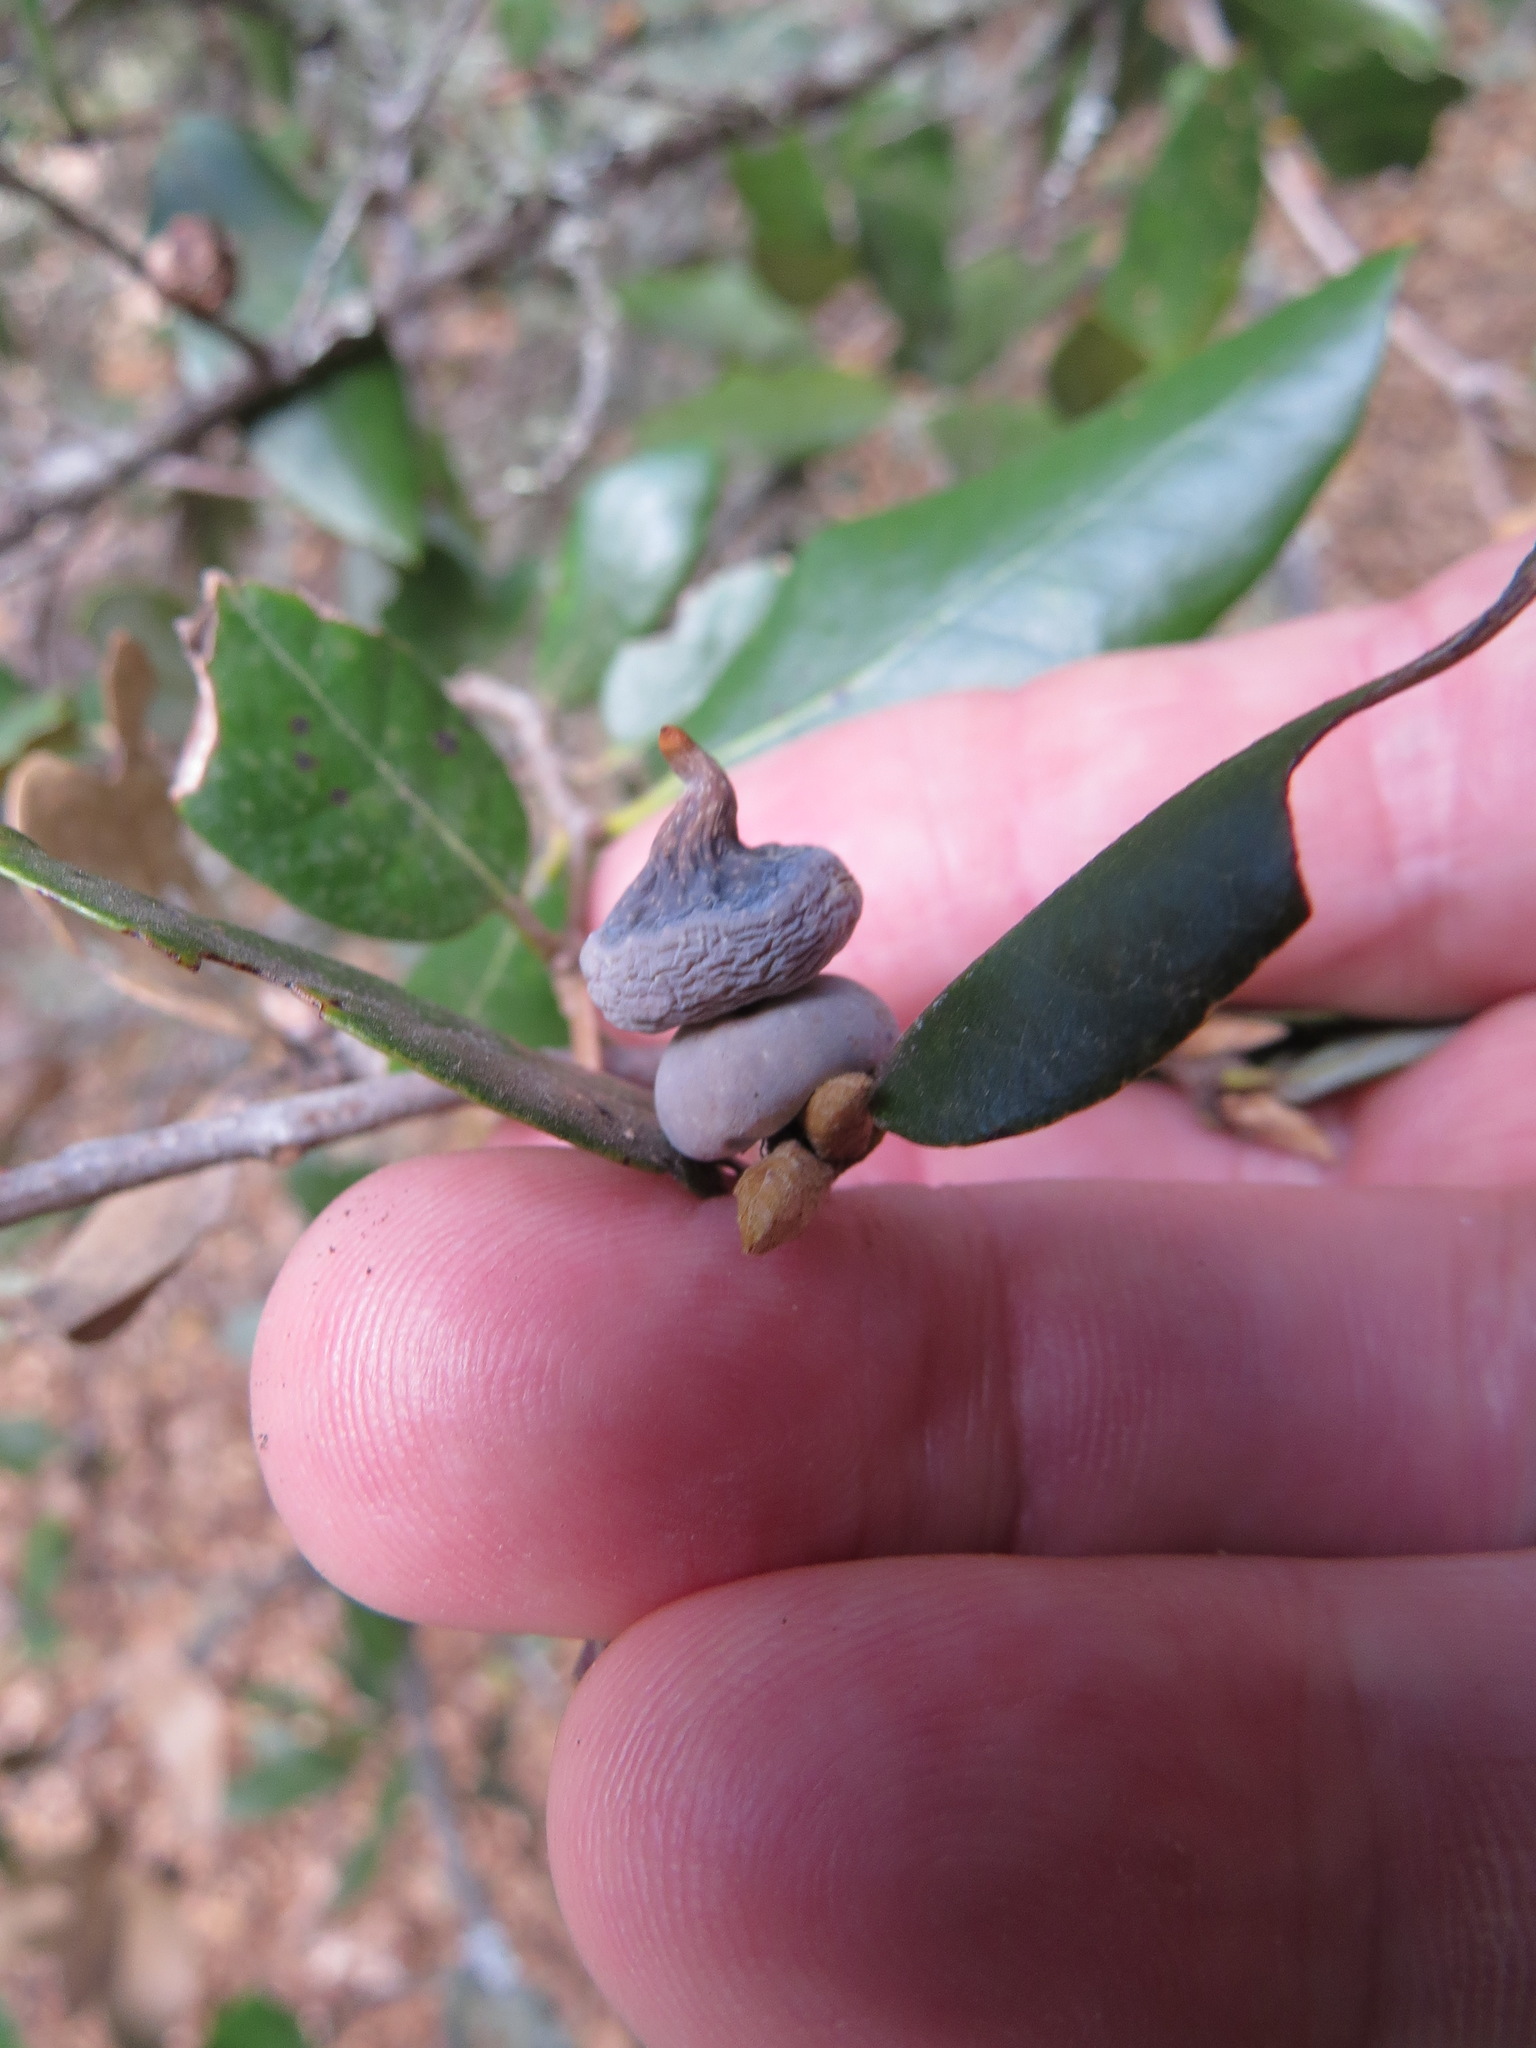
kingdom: Animalia
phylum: Arthropoda
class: Insecta
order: Hymenoptera
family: Cynipidae
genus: Heteroecus
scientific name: Heteroecus
